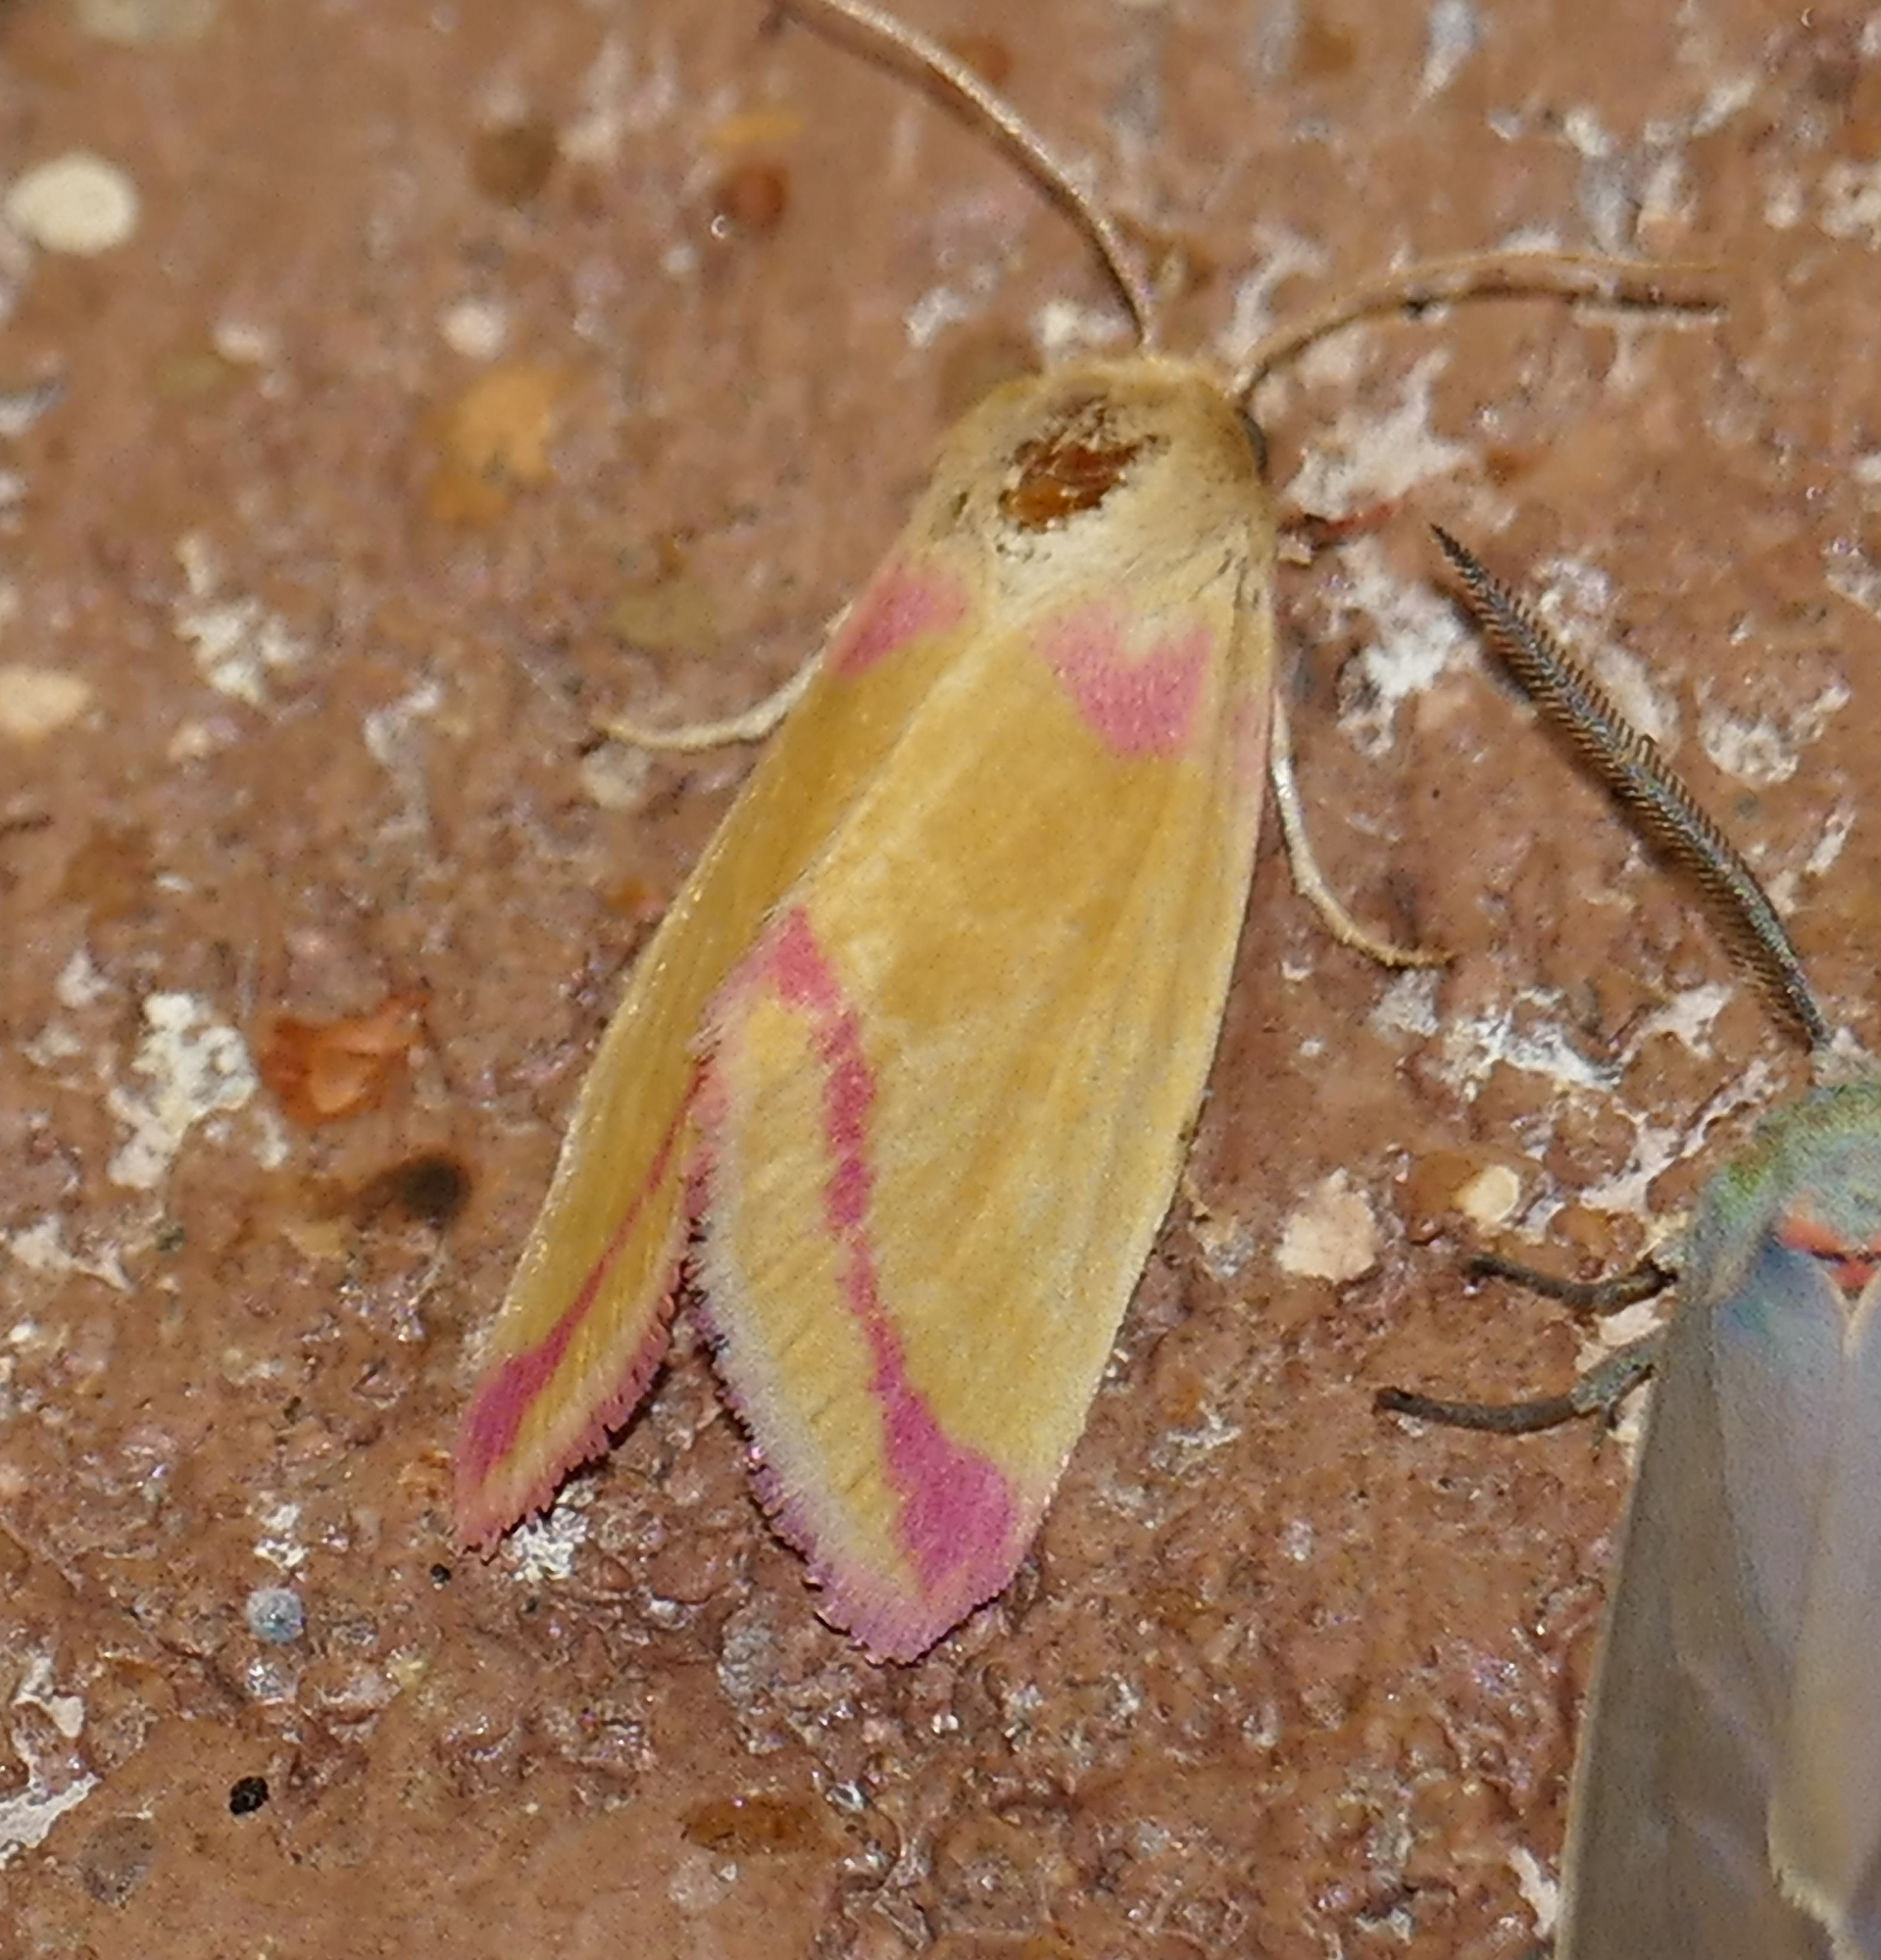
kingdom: Animalia
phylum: Arthropoda
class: Insecta
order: Lepidoptera
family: Noctuidae
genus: Heliocheilus
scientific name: Heliocheilus toralis
